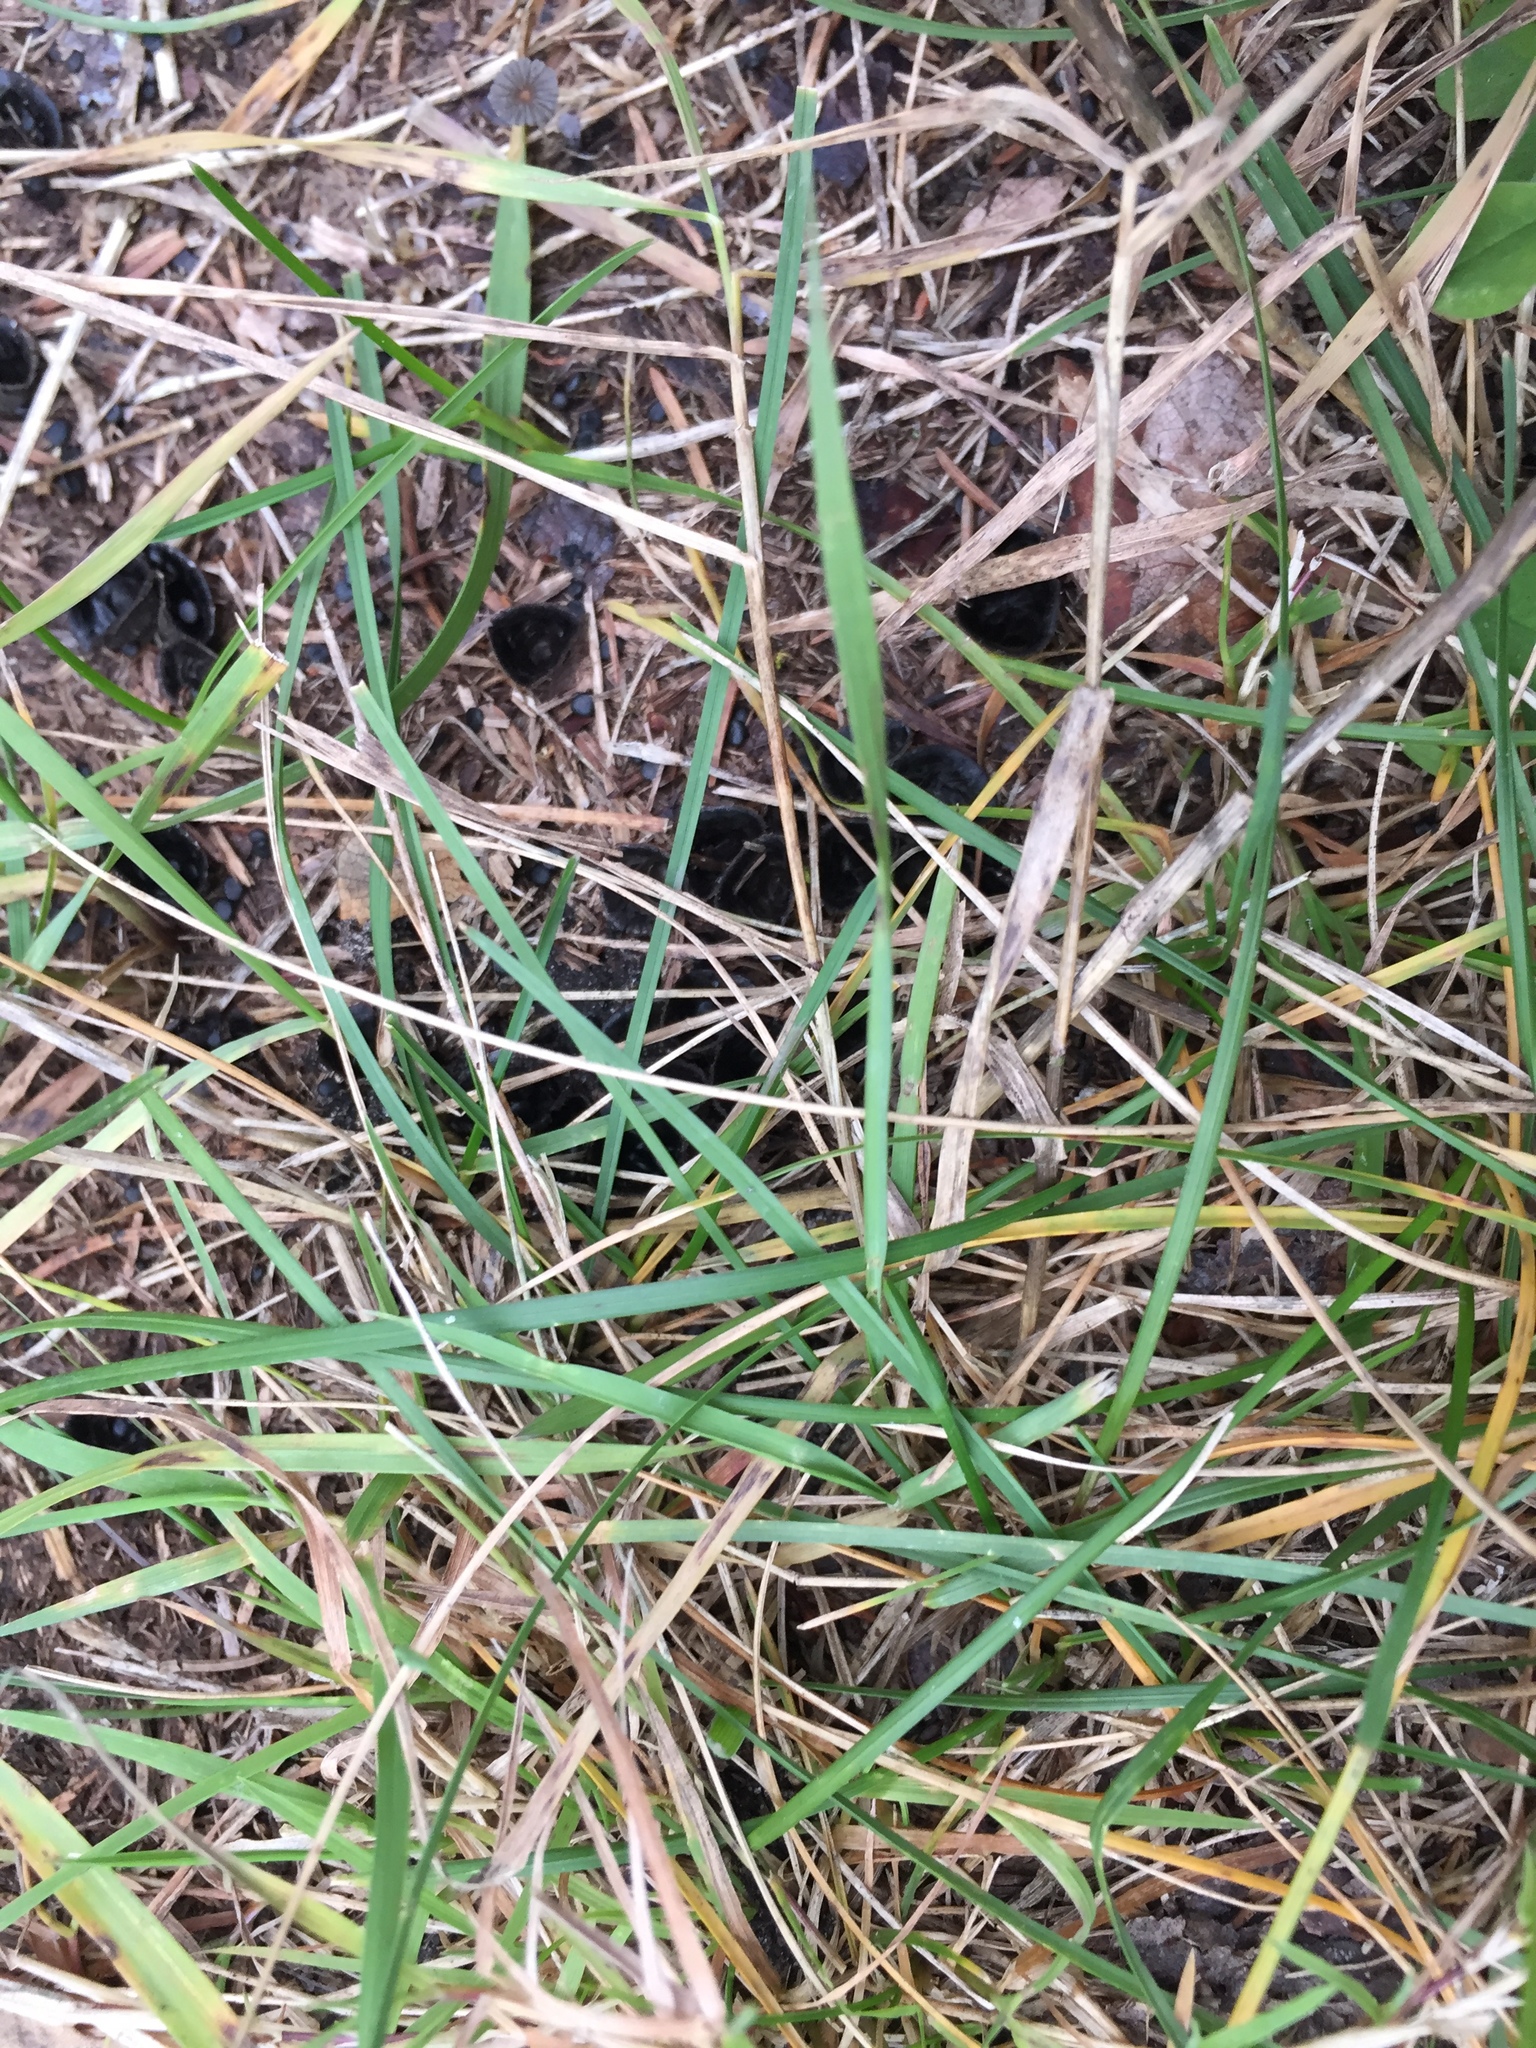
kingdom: Fungi
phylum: Basidiomycota
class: Agaricomycetes
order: Agaricales
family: Agaricaceae
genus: Cyathus
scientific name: Cyathus stercoreus
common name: Dung bird's nest
